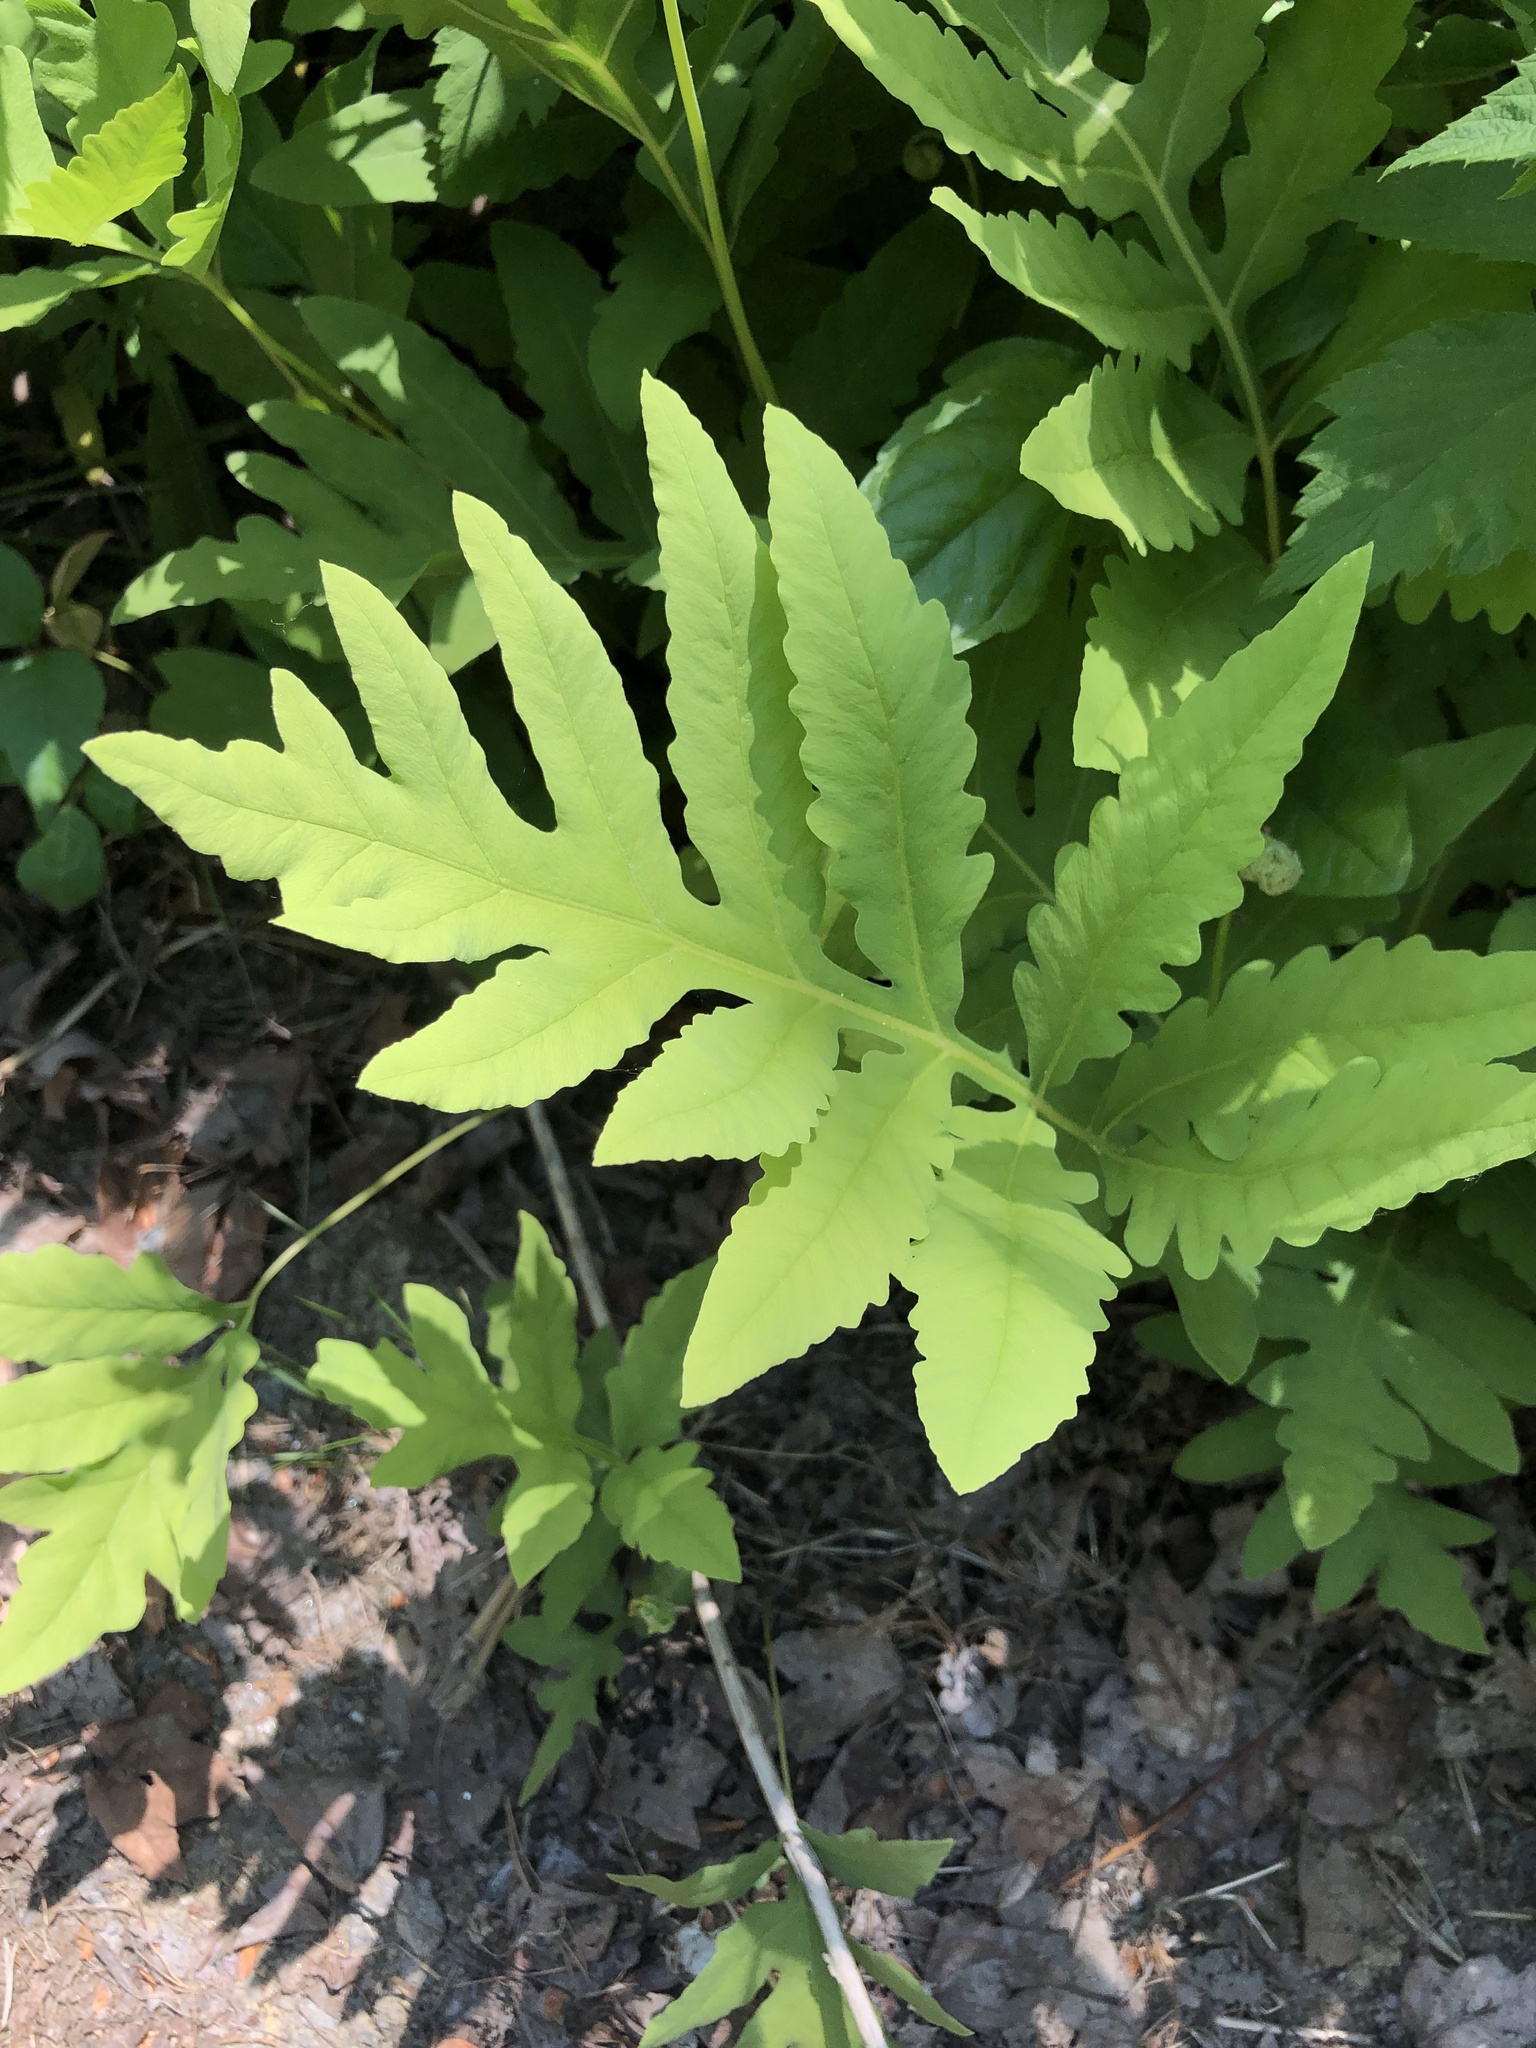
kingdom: Plantae
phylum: Tracheophyta
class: Polypodiopsida
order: Polypodiales
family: Onocleaceae
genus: Onoclea
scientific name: Onoclea sensibilis
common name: Sensitive fern
